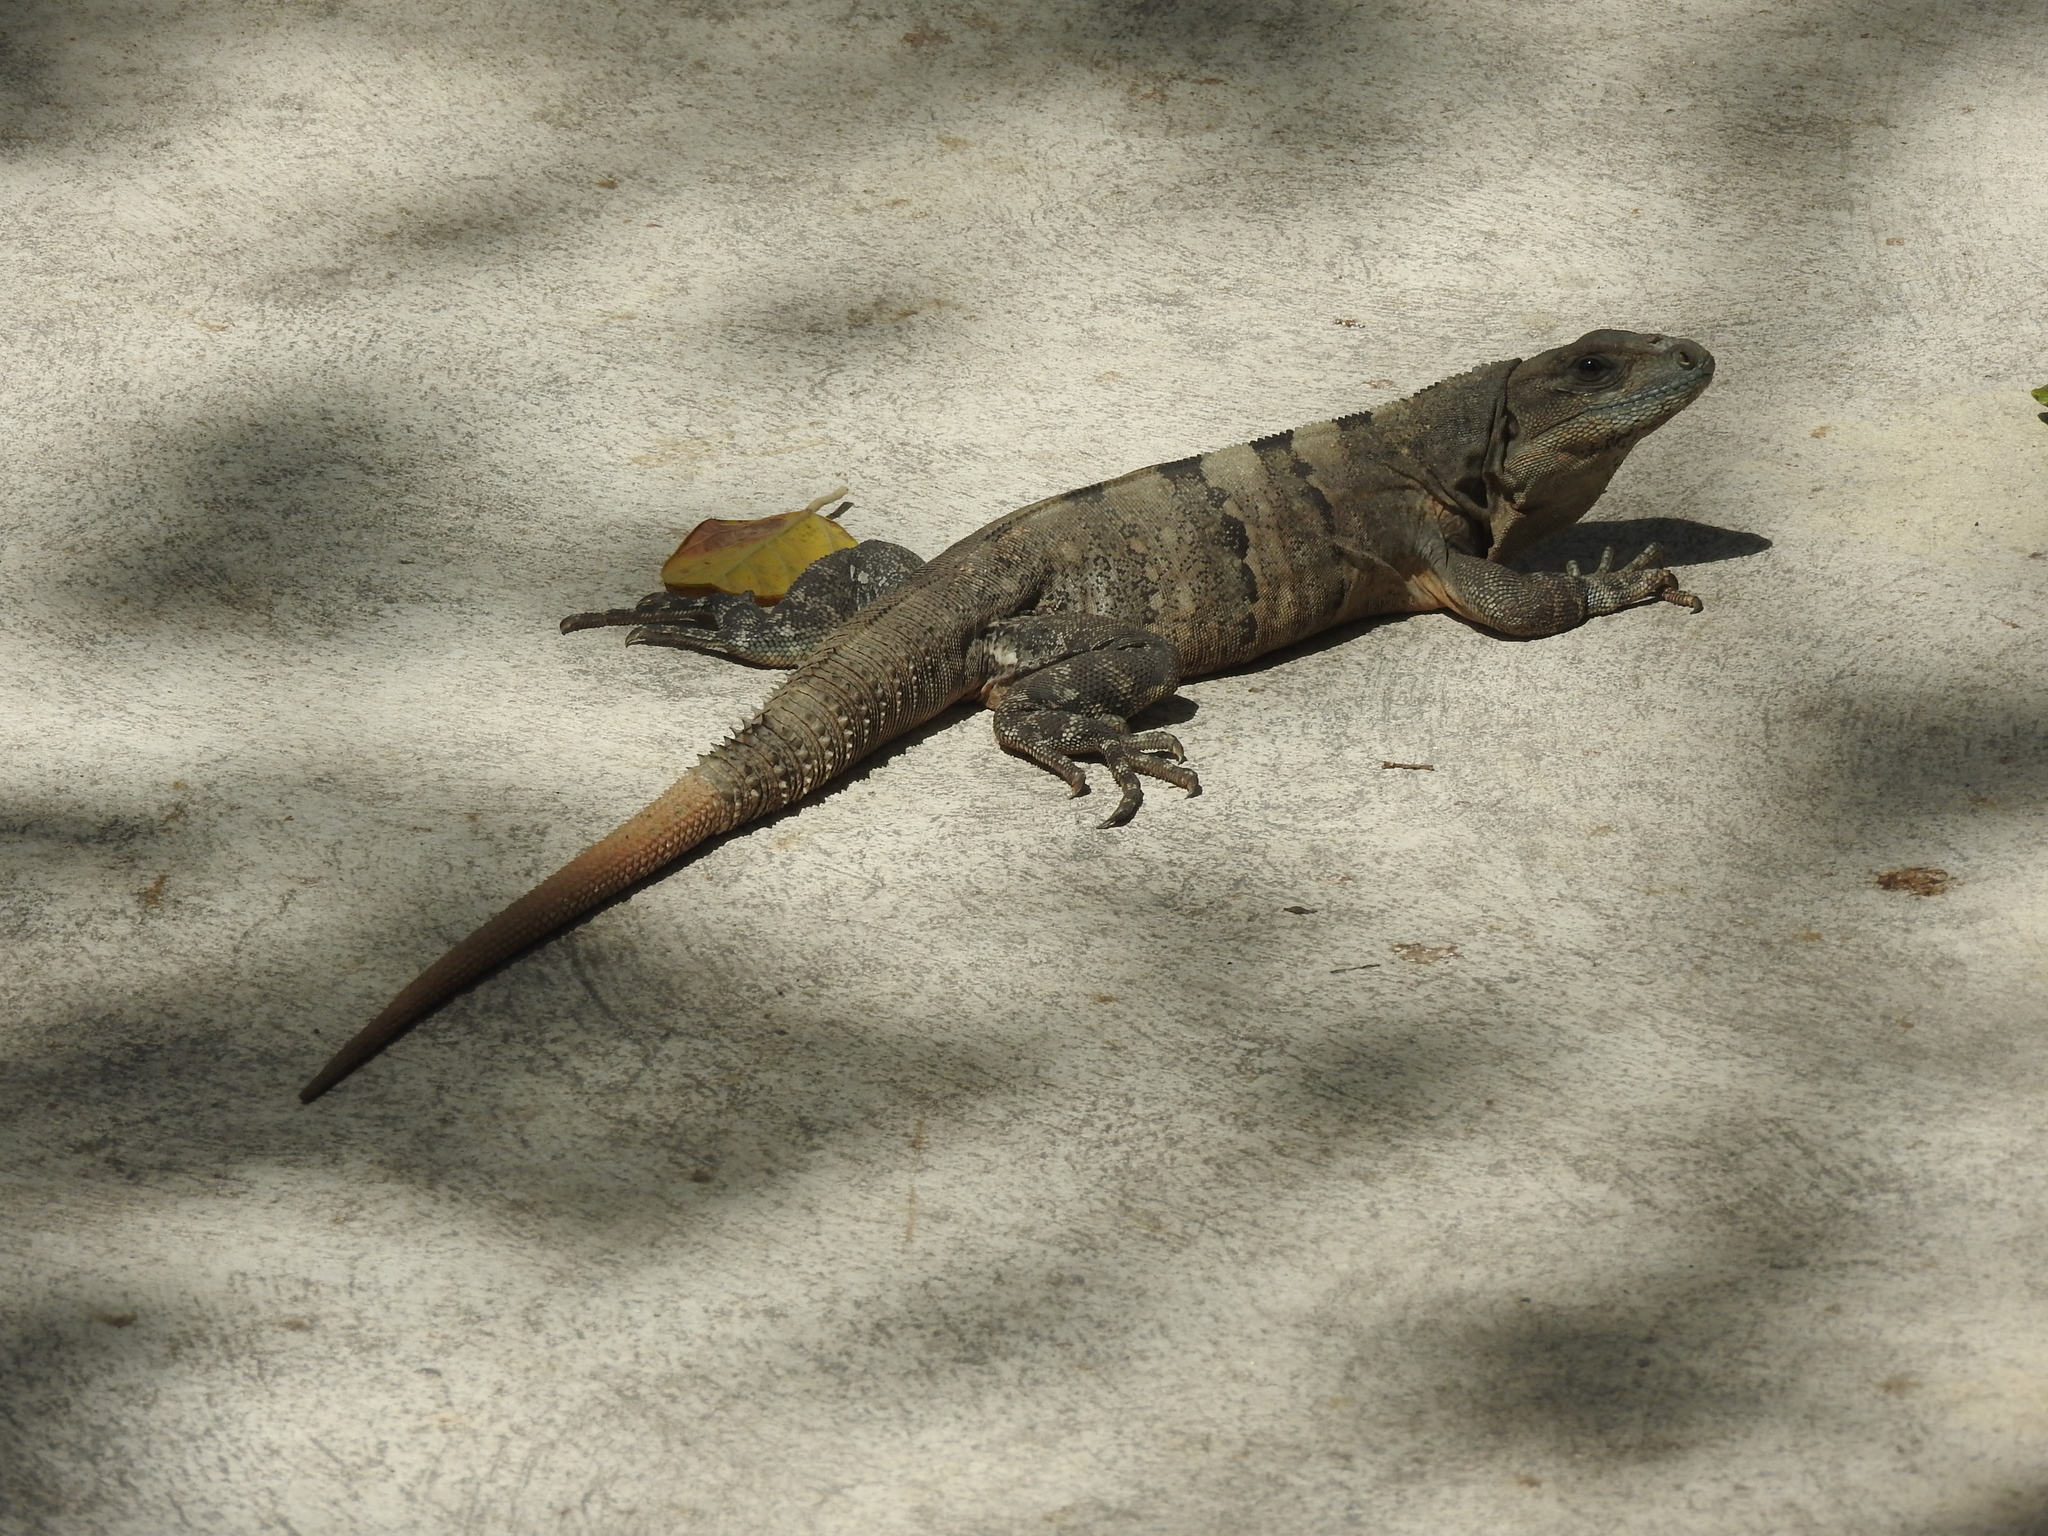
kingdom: Animalia
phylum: Chordata
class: Squamata
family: Iguanidae
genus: Ctenosaura
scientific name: Ctenosaura similis
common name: Black spiny-tailed iguana
